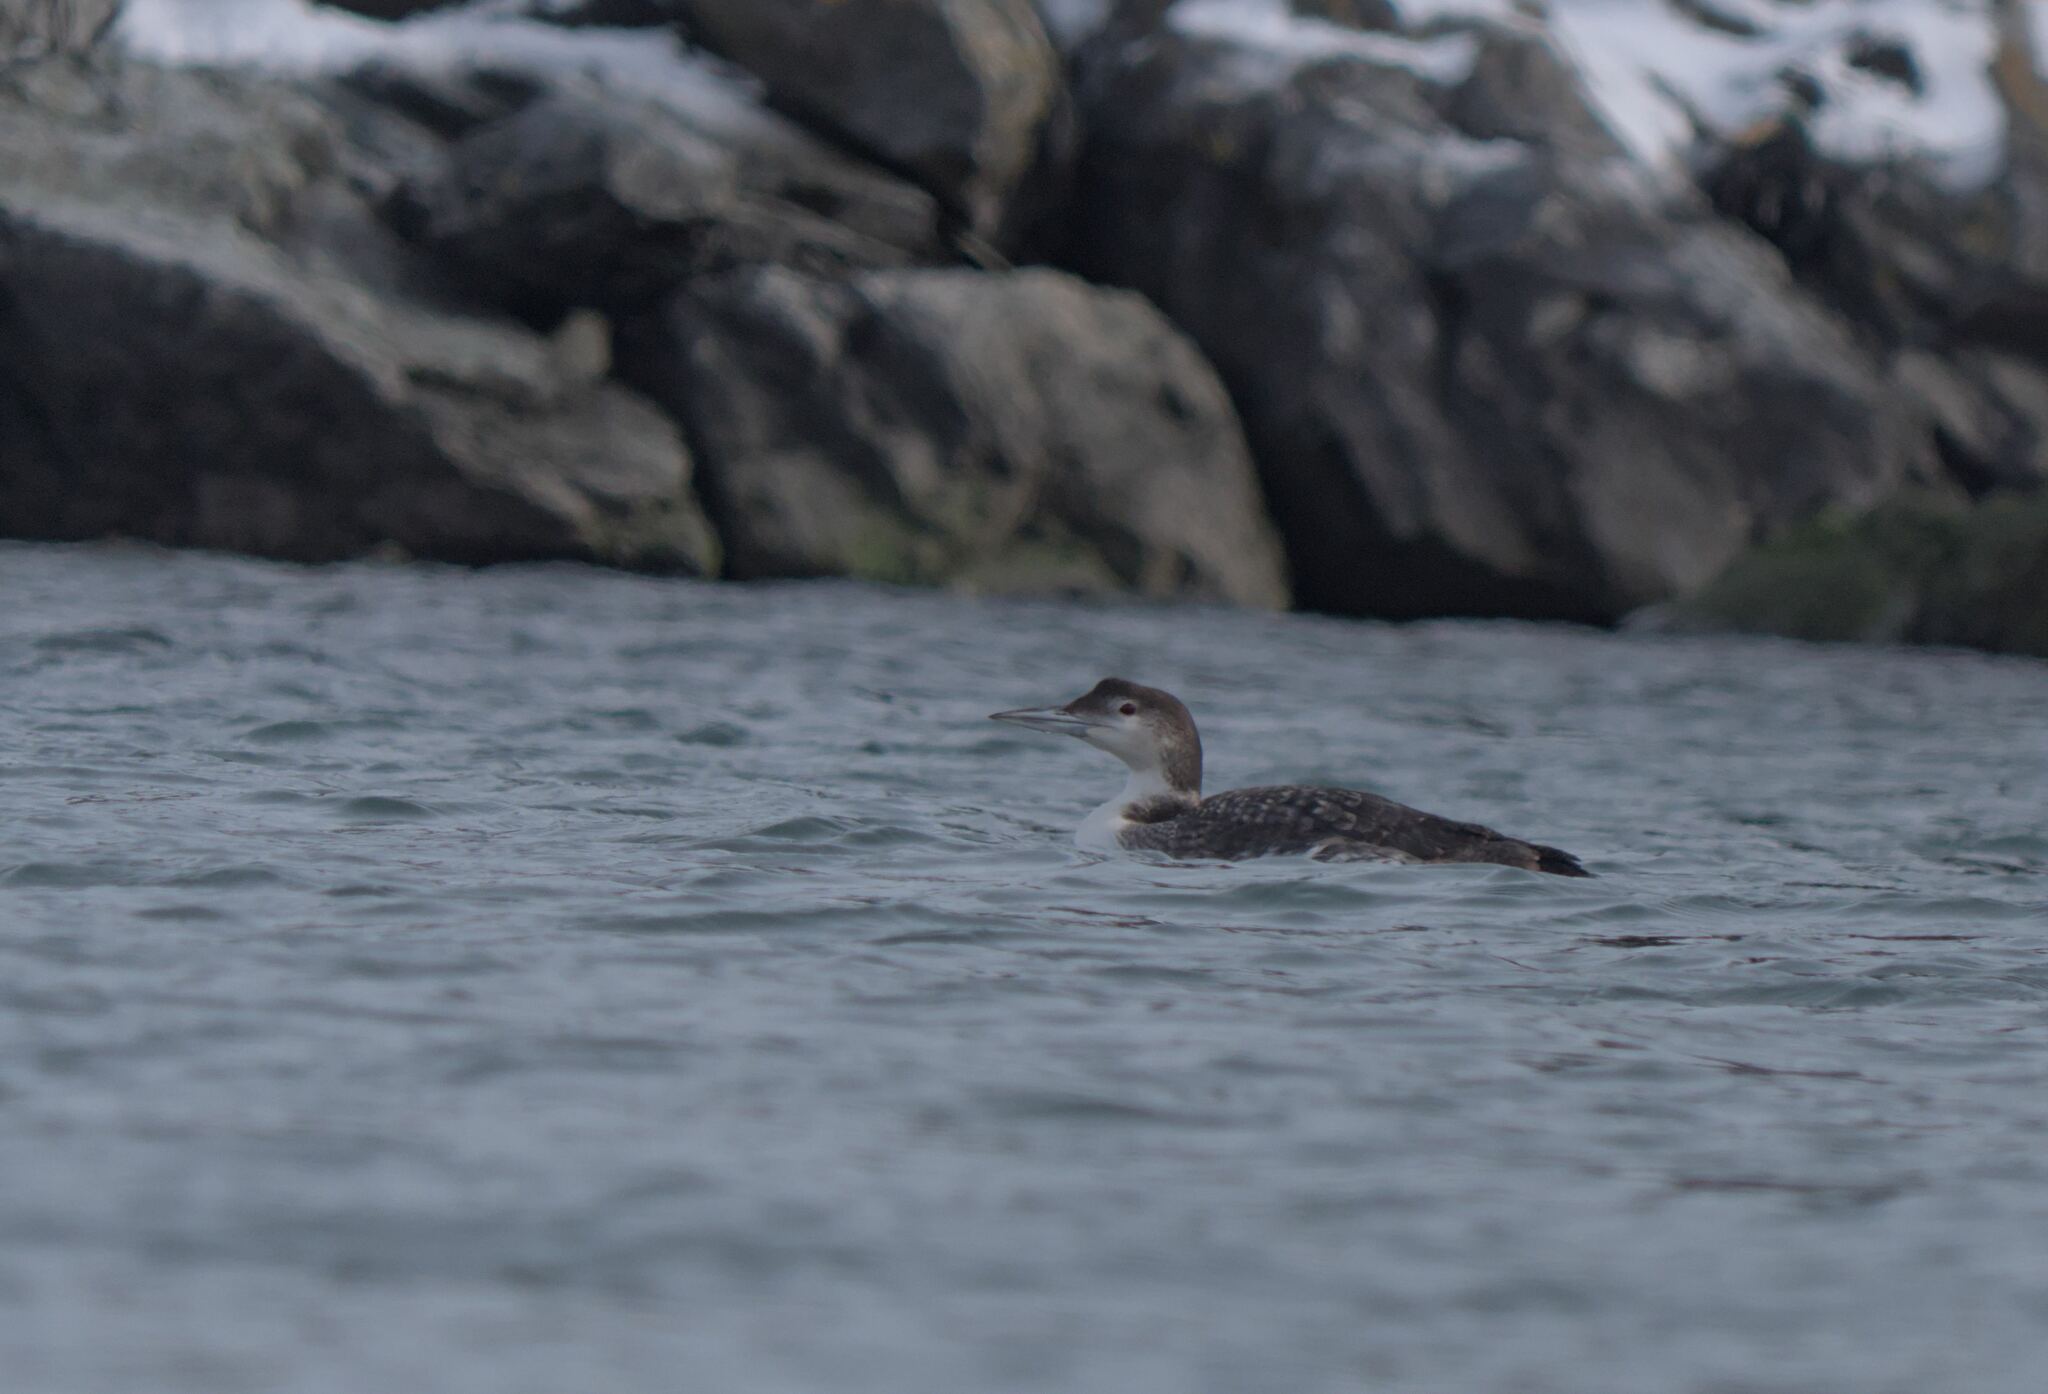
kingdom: Animalia
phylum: Chordata
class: Aves
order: Gaviiformes
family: Gaviidae
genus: Gavia
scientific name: Gavia immer
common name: Common loon
